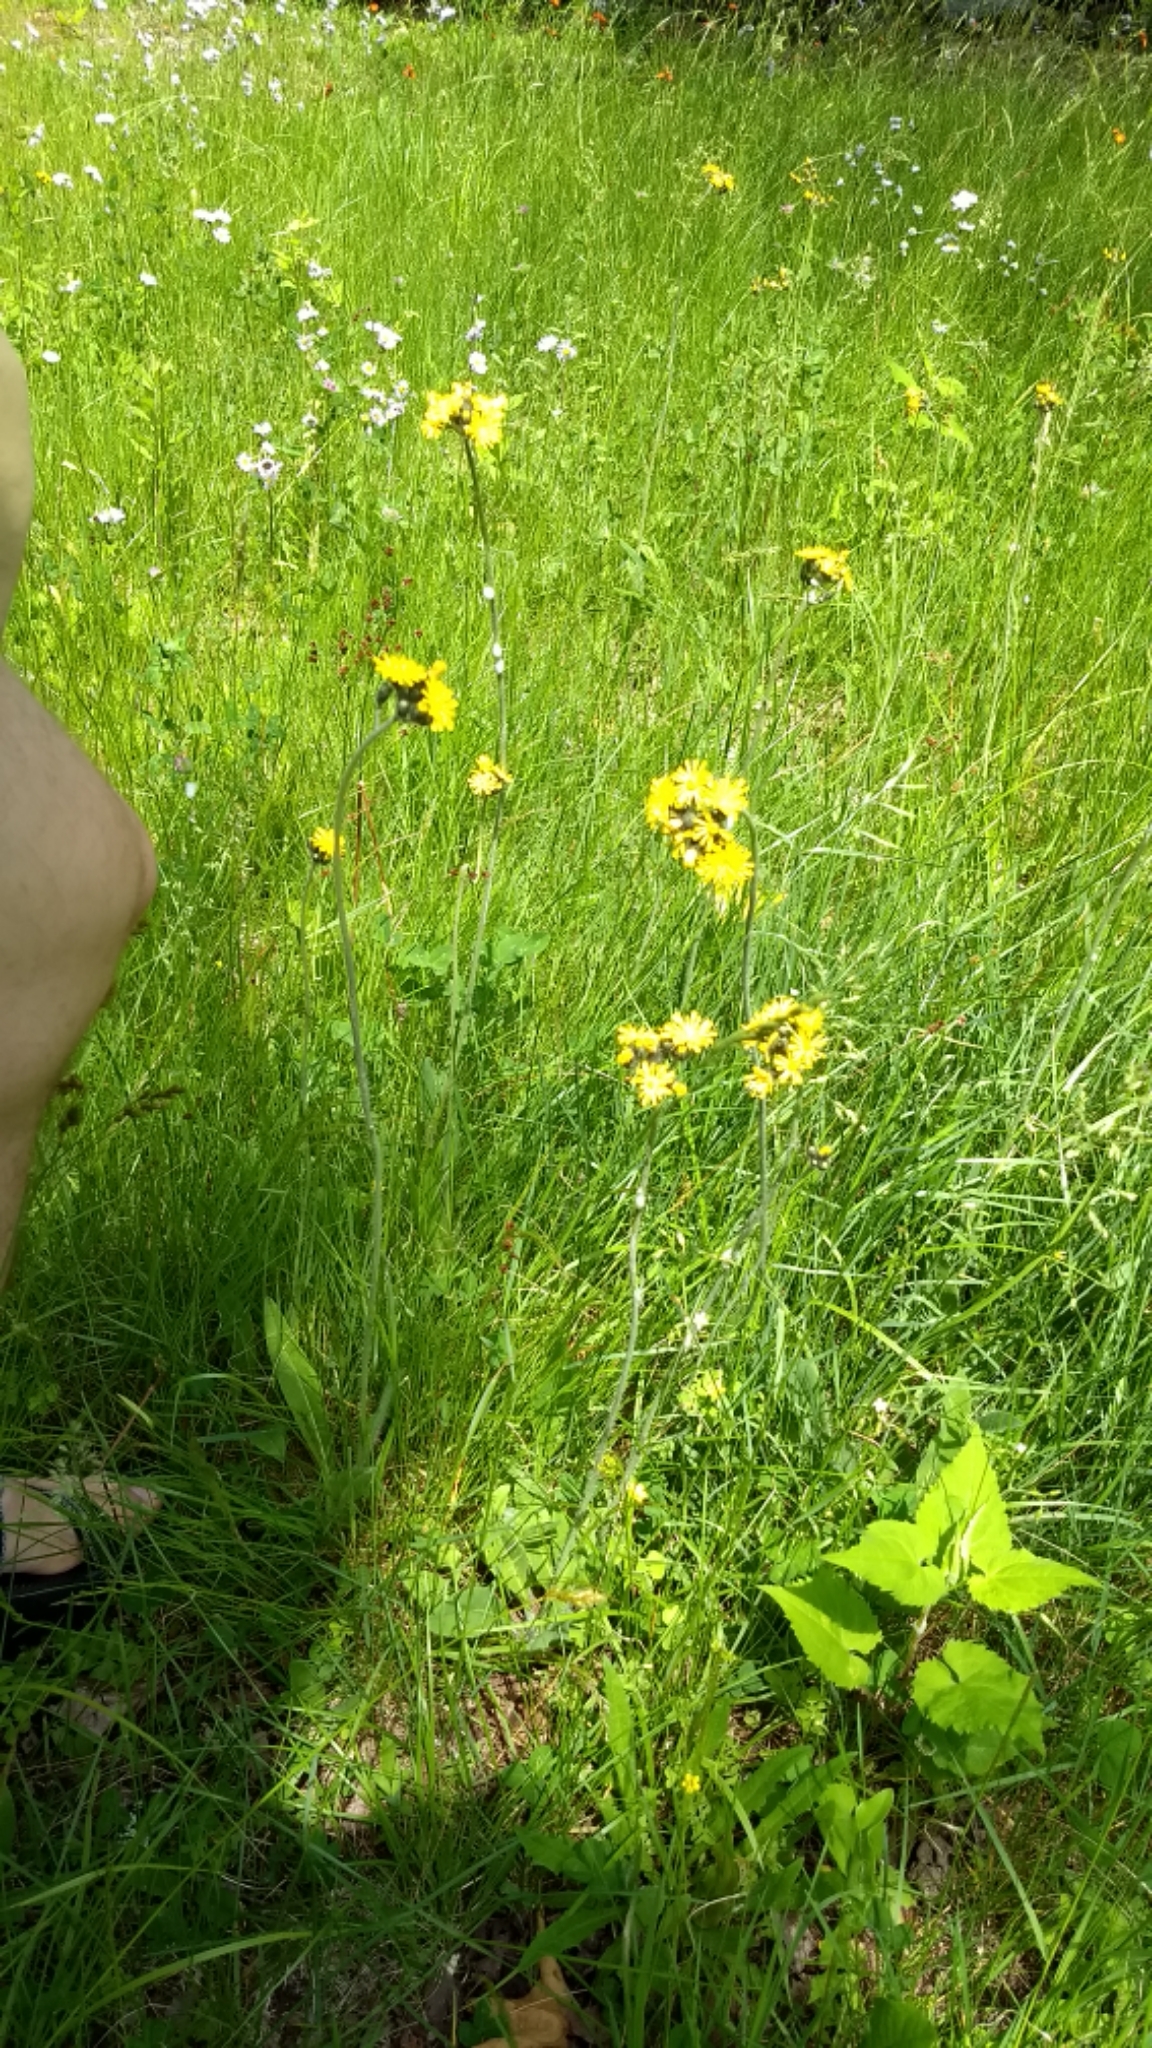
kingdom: Plantae
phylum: Tracheophyta
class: Magnoliopsida
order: Asterales
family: Asteraceae
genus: Pilosella
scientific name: Pilosella caespitosa
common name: Yellow fox-and-cubs
